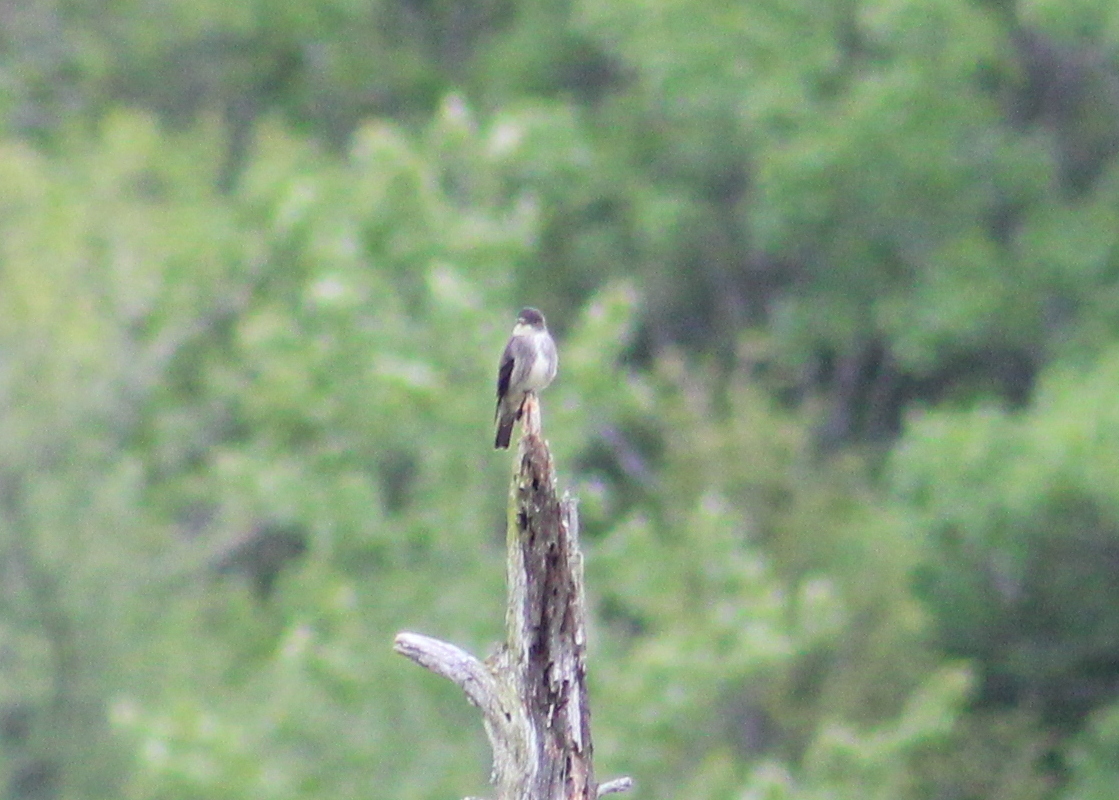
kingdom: Animalia
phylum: Chordata
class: Aves
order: Passeriformes
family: Tyrannidae
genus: Contopus
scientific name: Contopus cooperi
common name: Olive-sided flycatcher
